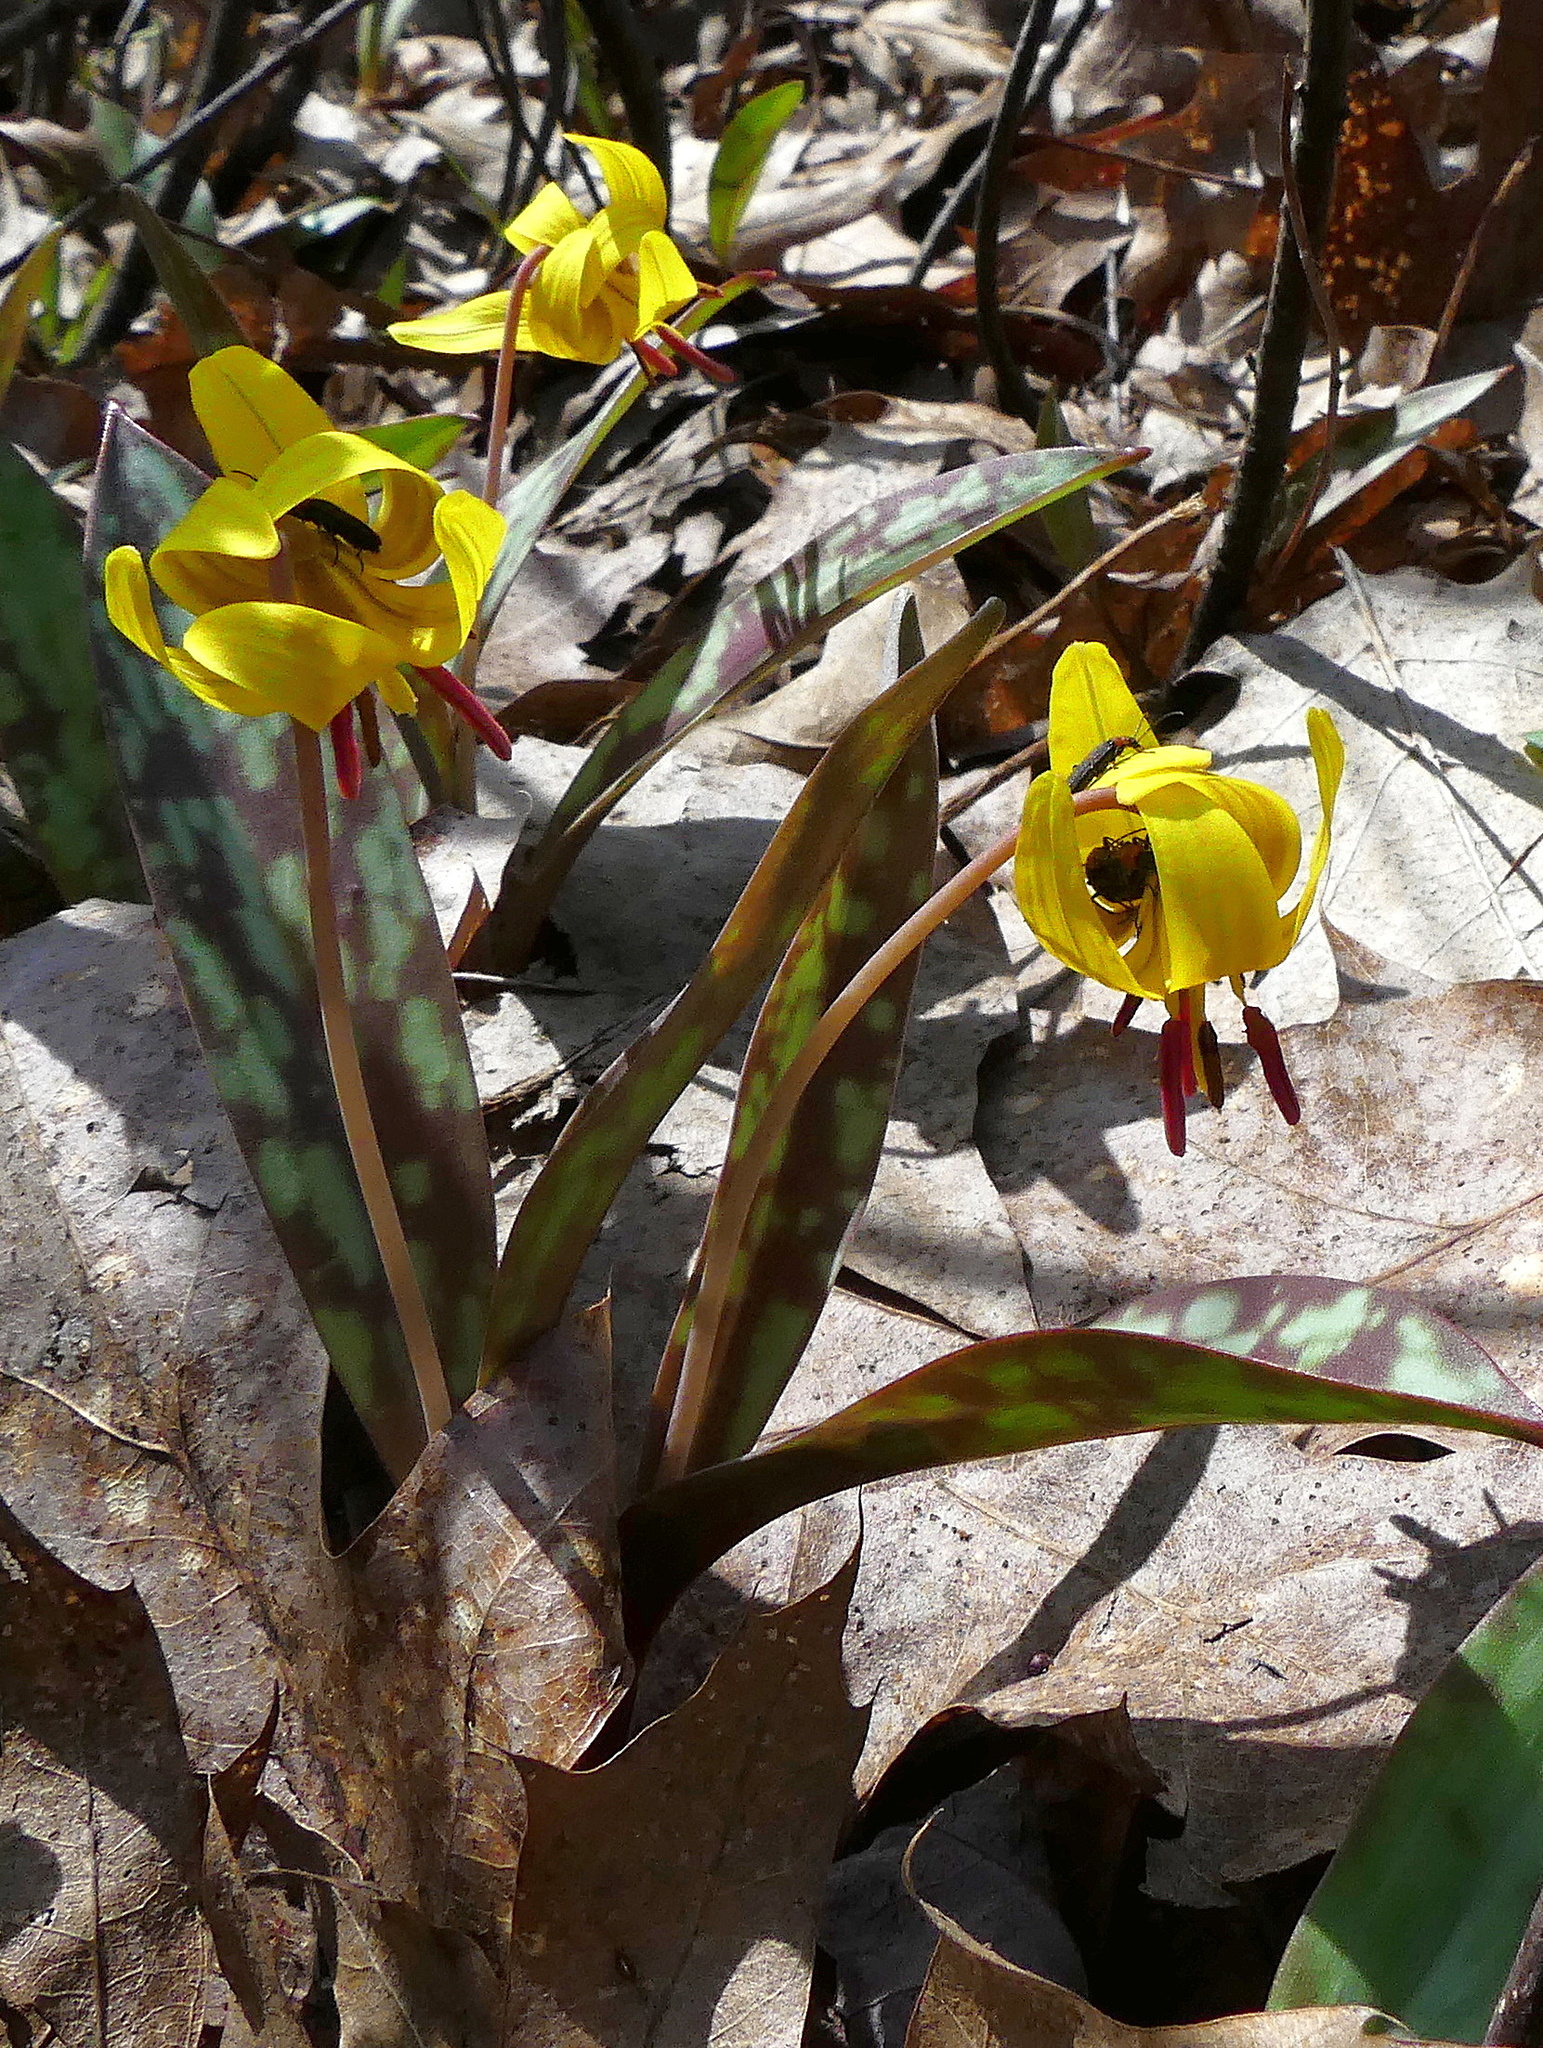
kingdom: Plantae
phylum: Tracheophyta
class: Liliopsida
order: Liliales
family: Liliaceae
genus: Erythronium
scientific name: Erythronium americanum
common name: Yellow adder's-tongue
